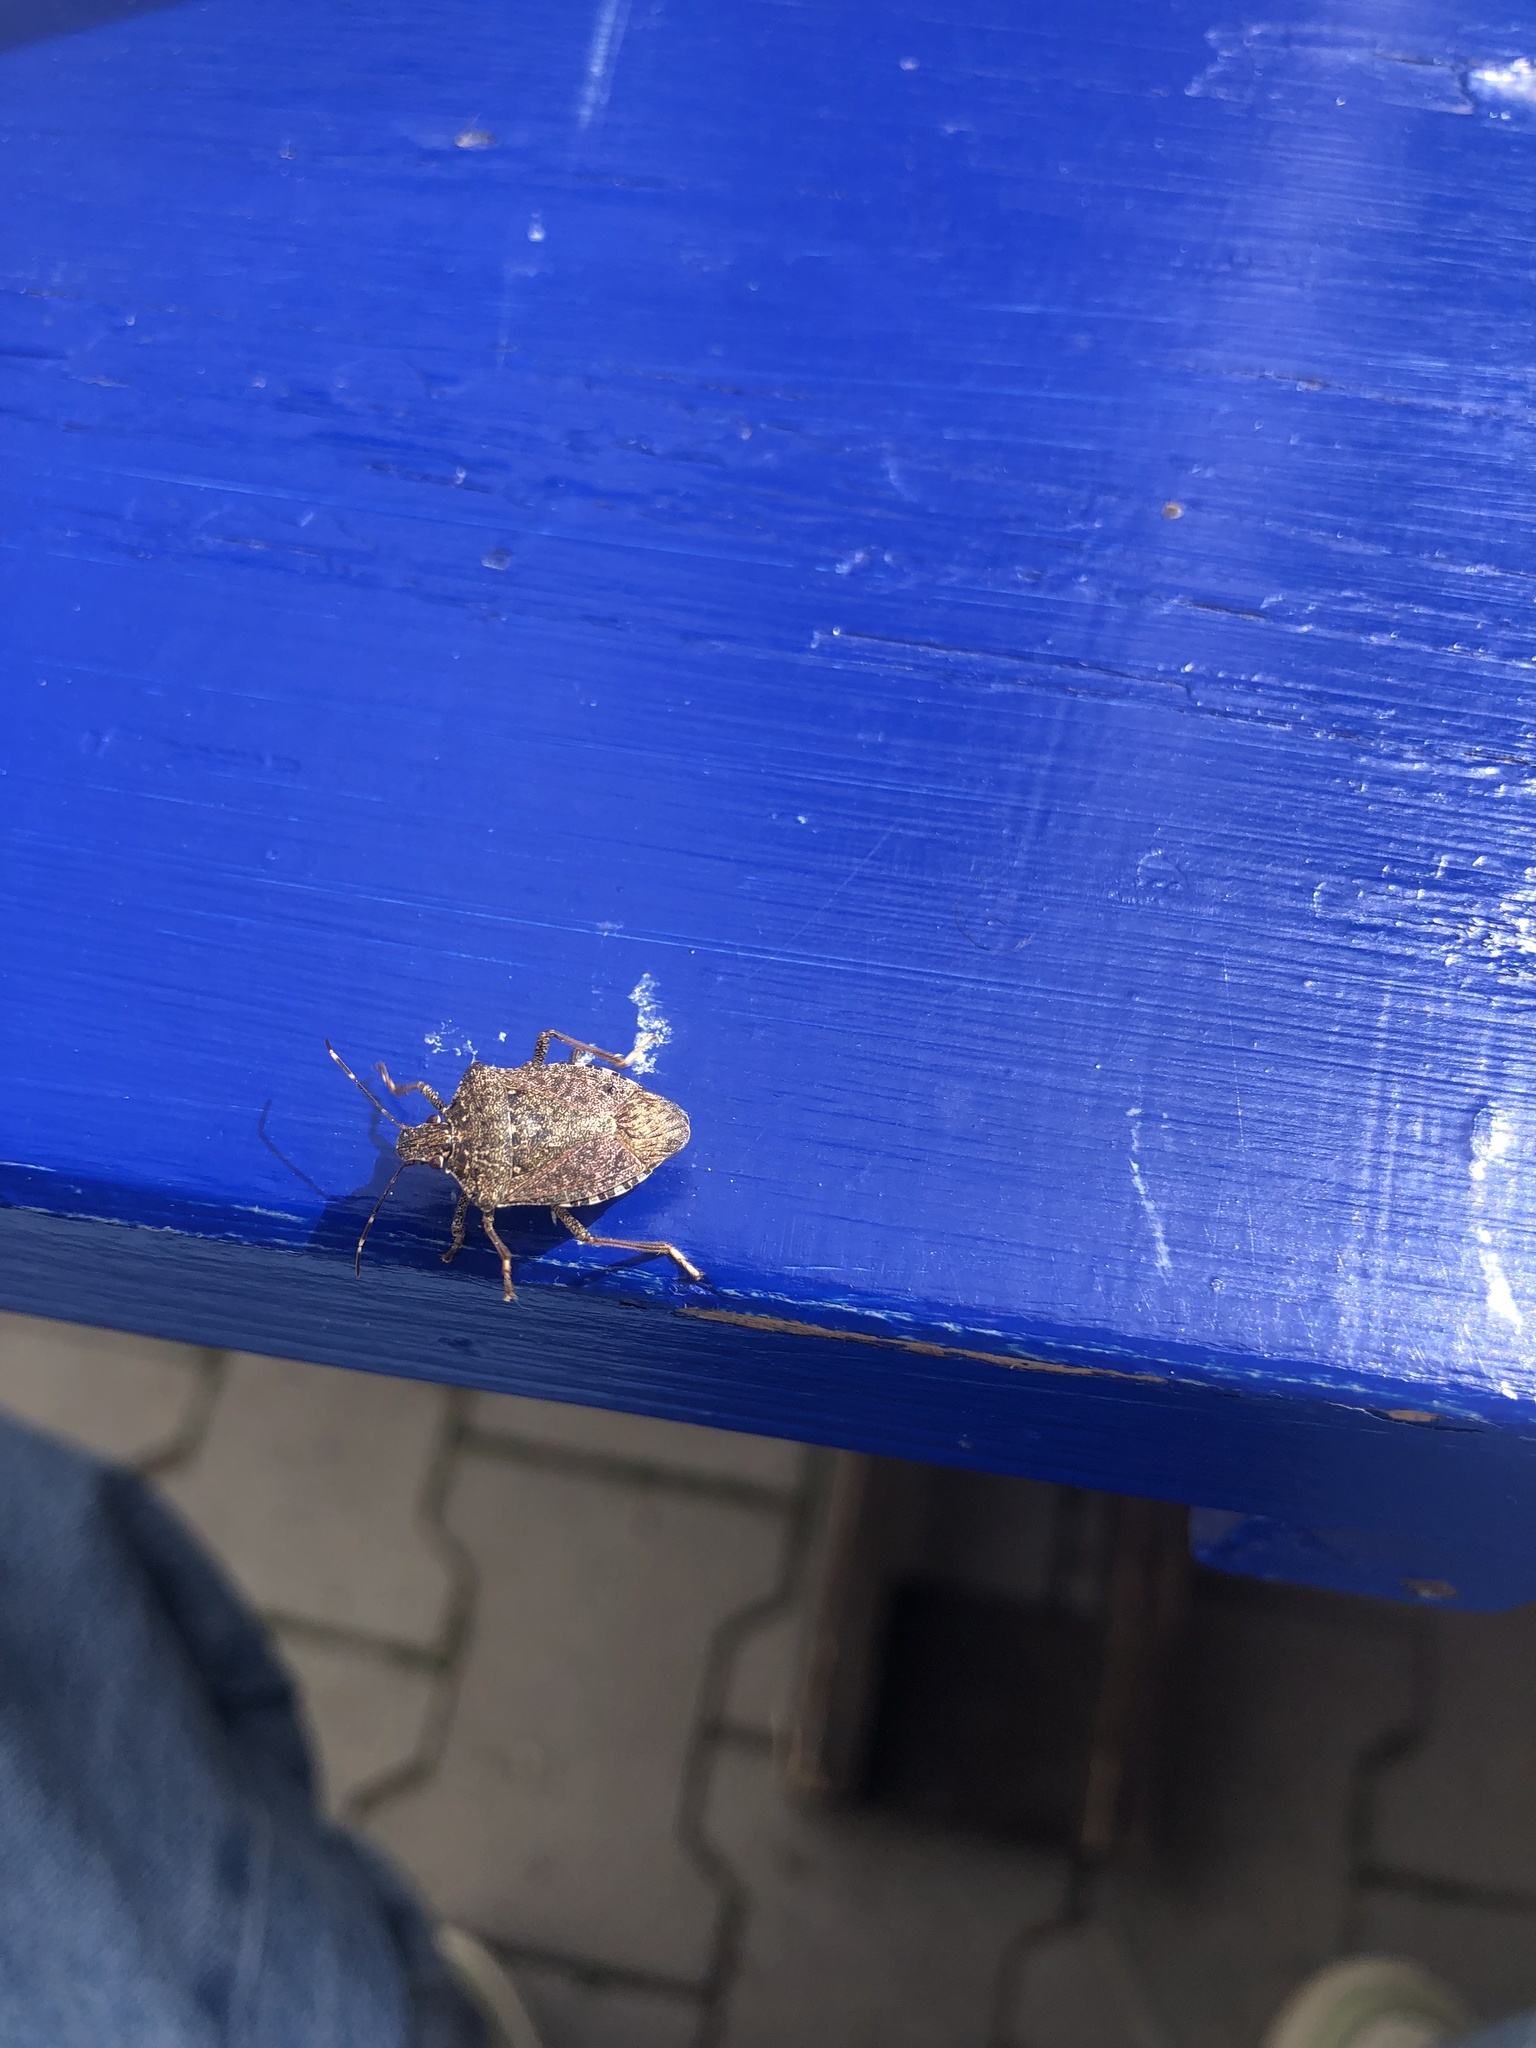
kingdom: Animalia
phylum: Arthropoda
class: Insecta
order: Hemiptera
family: Pentatomidae
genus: Halyomorpha
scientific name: Halyomorpha halys
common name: Brown marmorated stink bug
